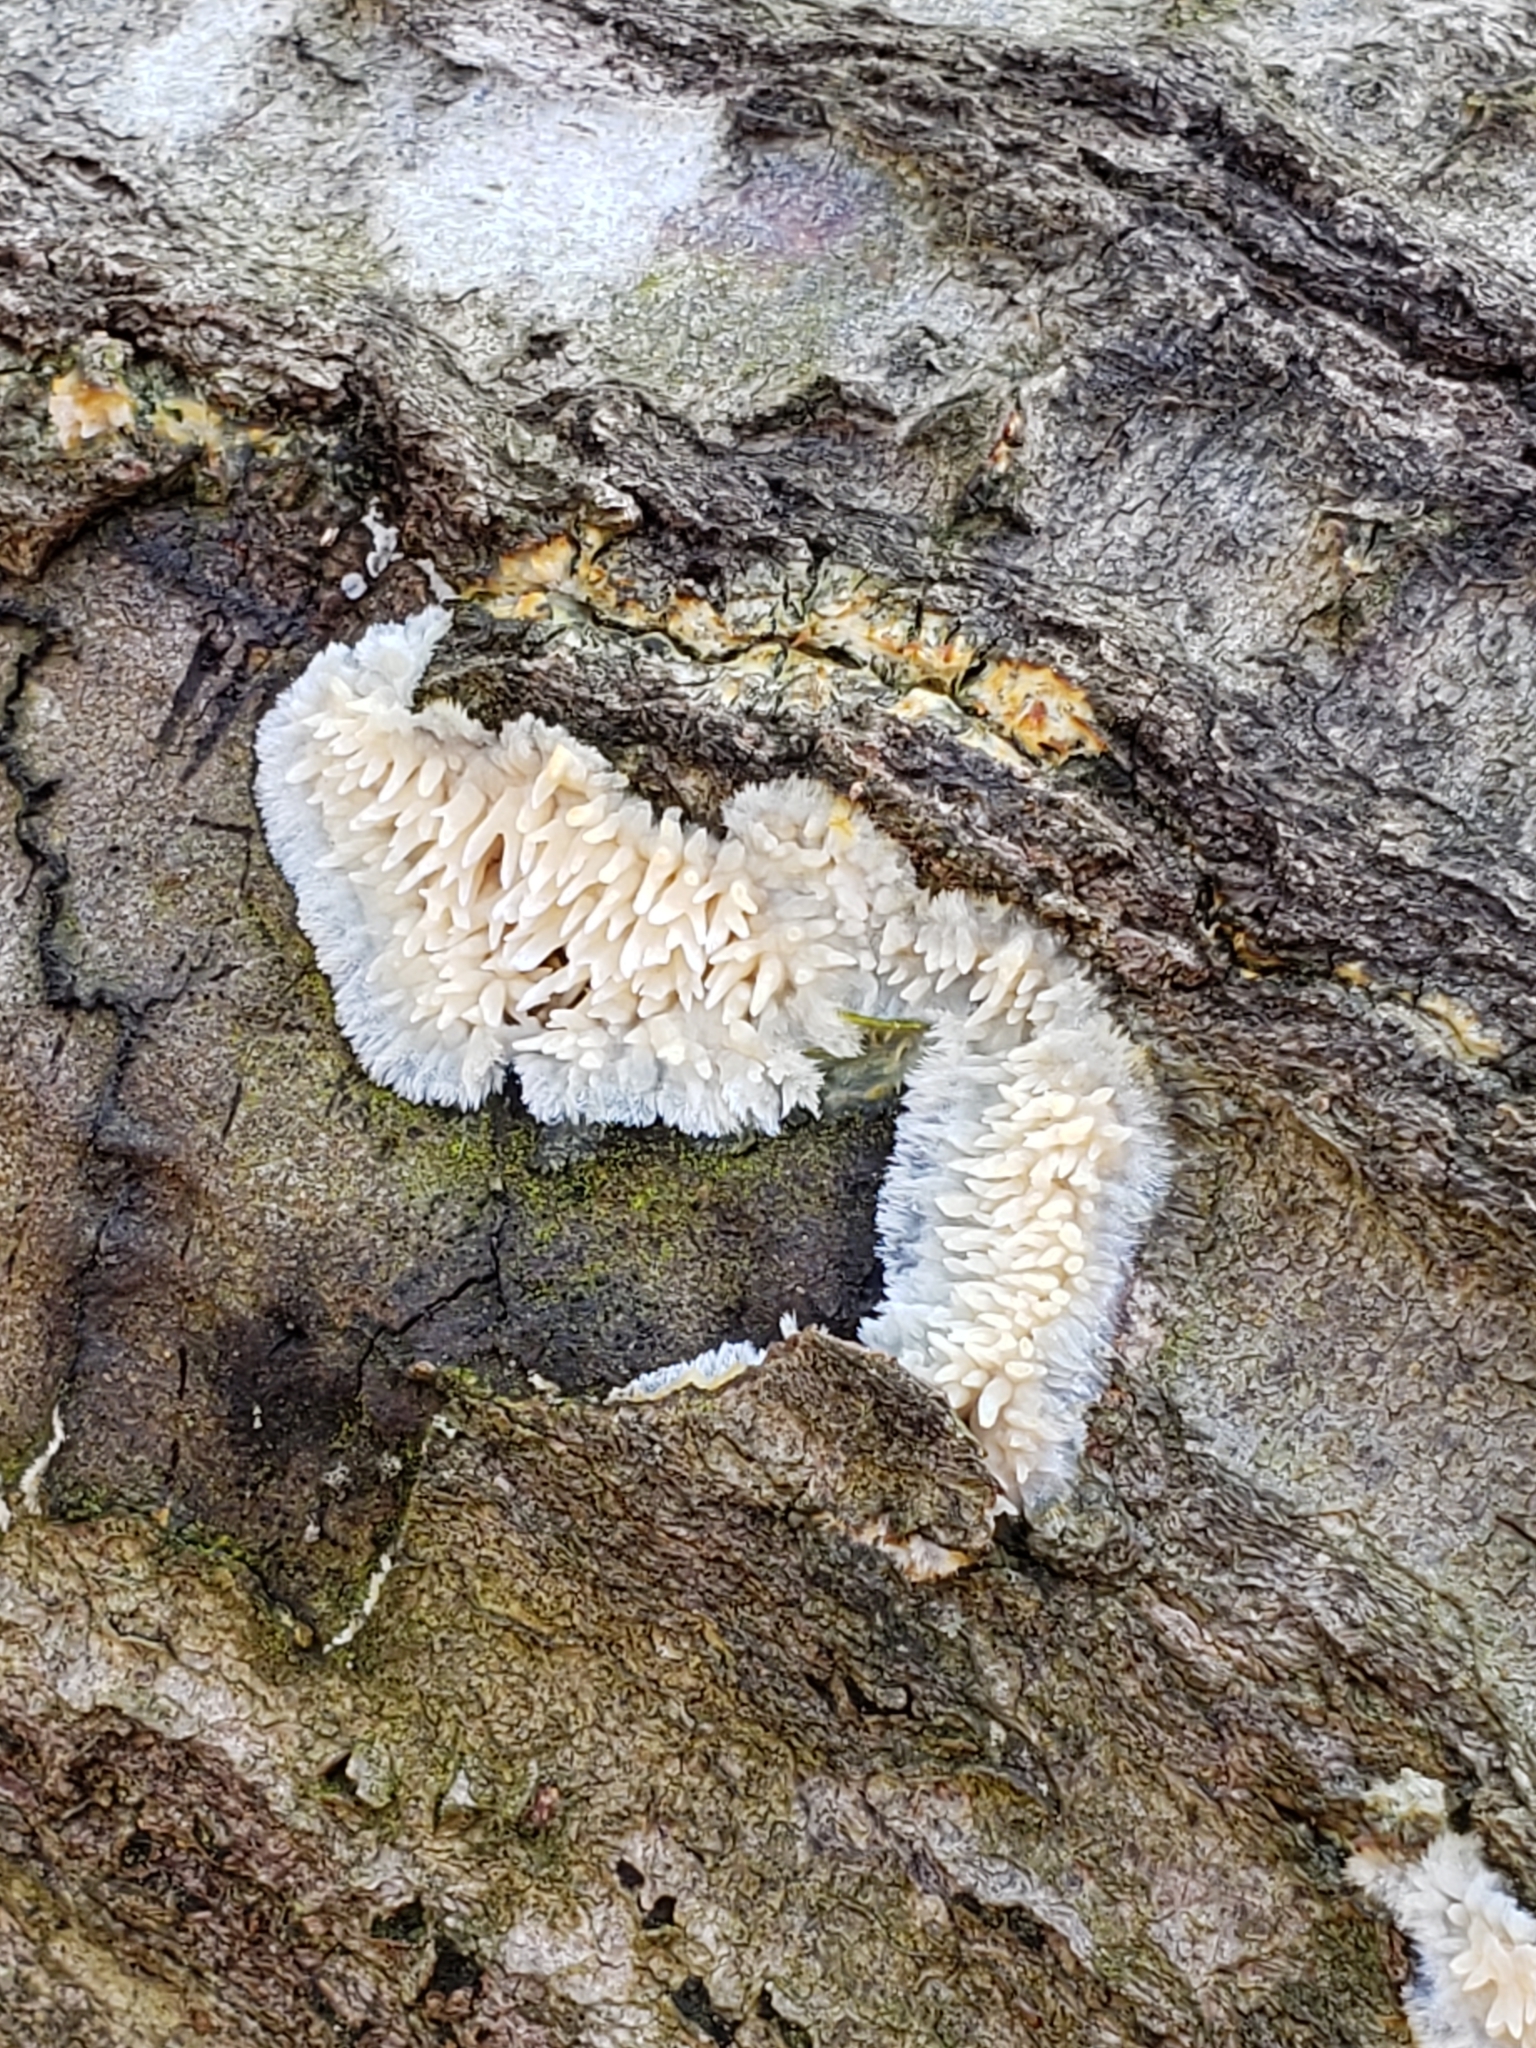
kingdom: Fungi
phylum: Basidiomycota
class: Agaricomycetes
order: Agaricales
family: Radulomycetaceae
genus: Radulomyces
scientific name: Radulomyces copelandii
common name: Asian beauty
